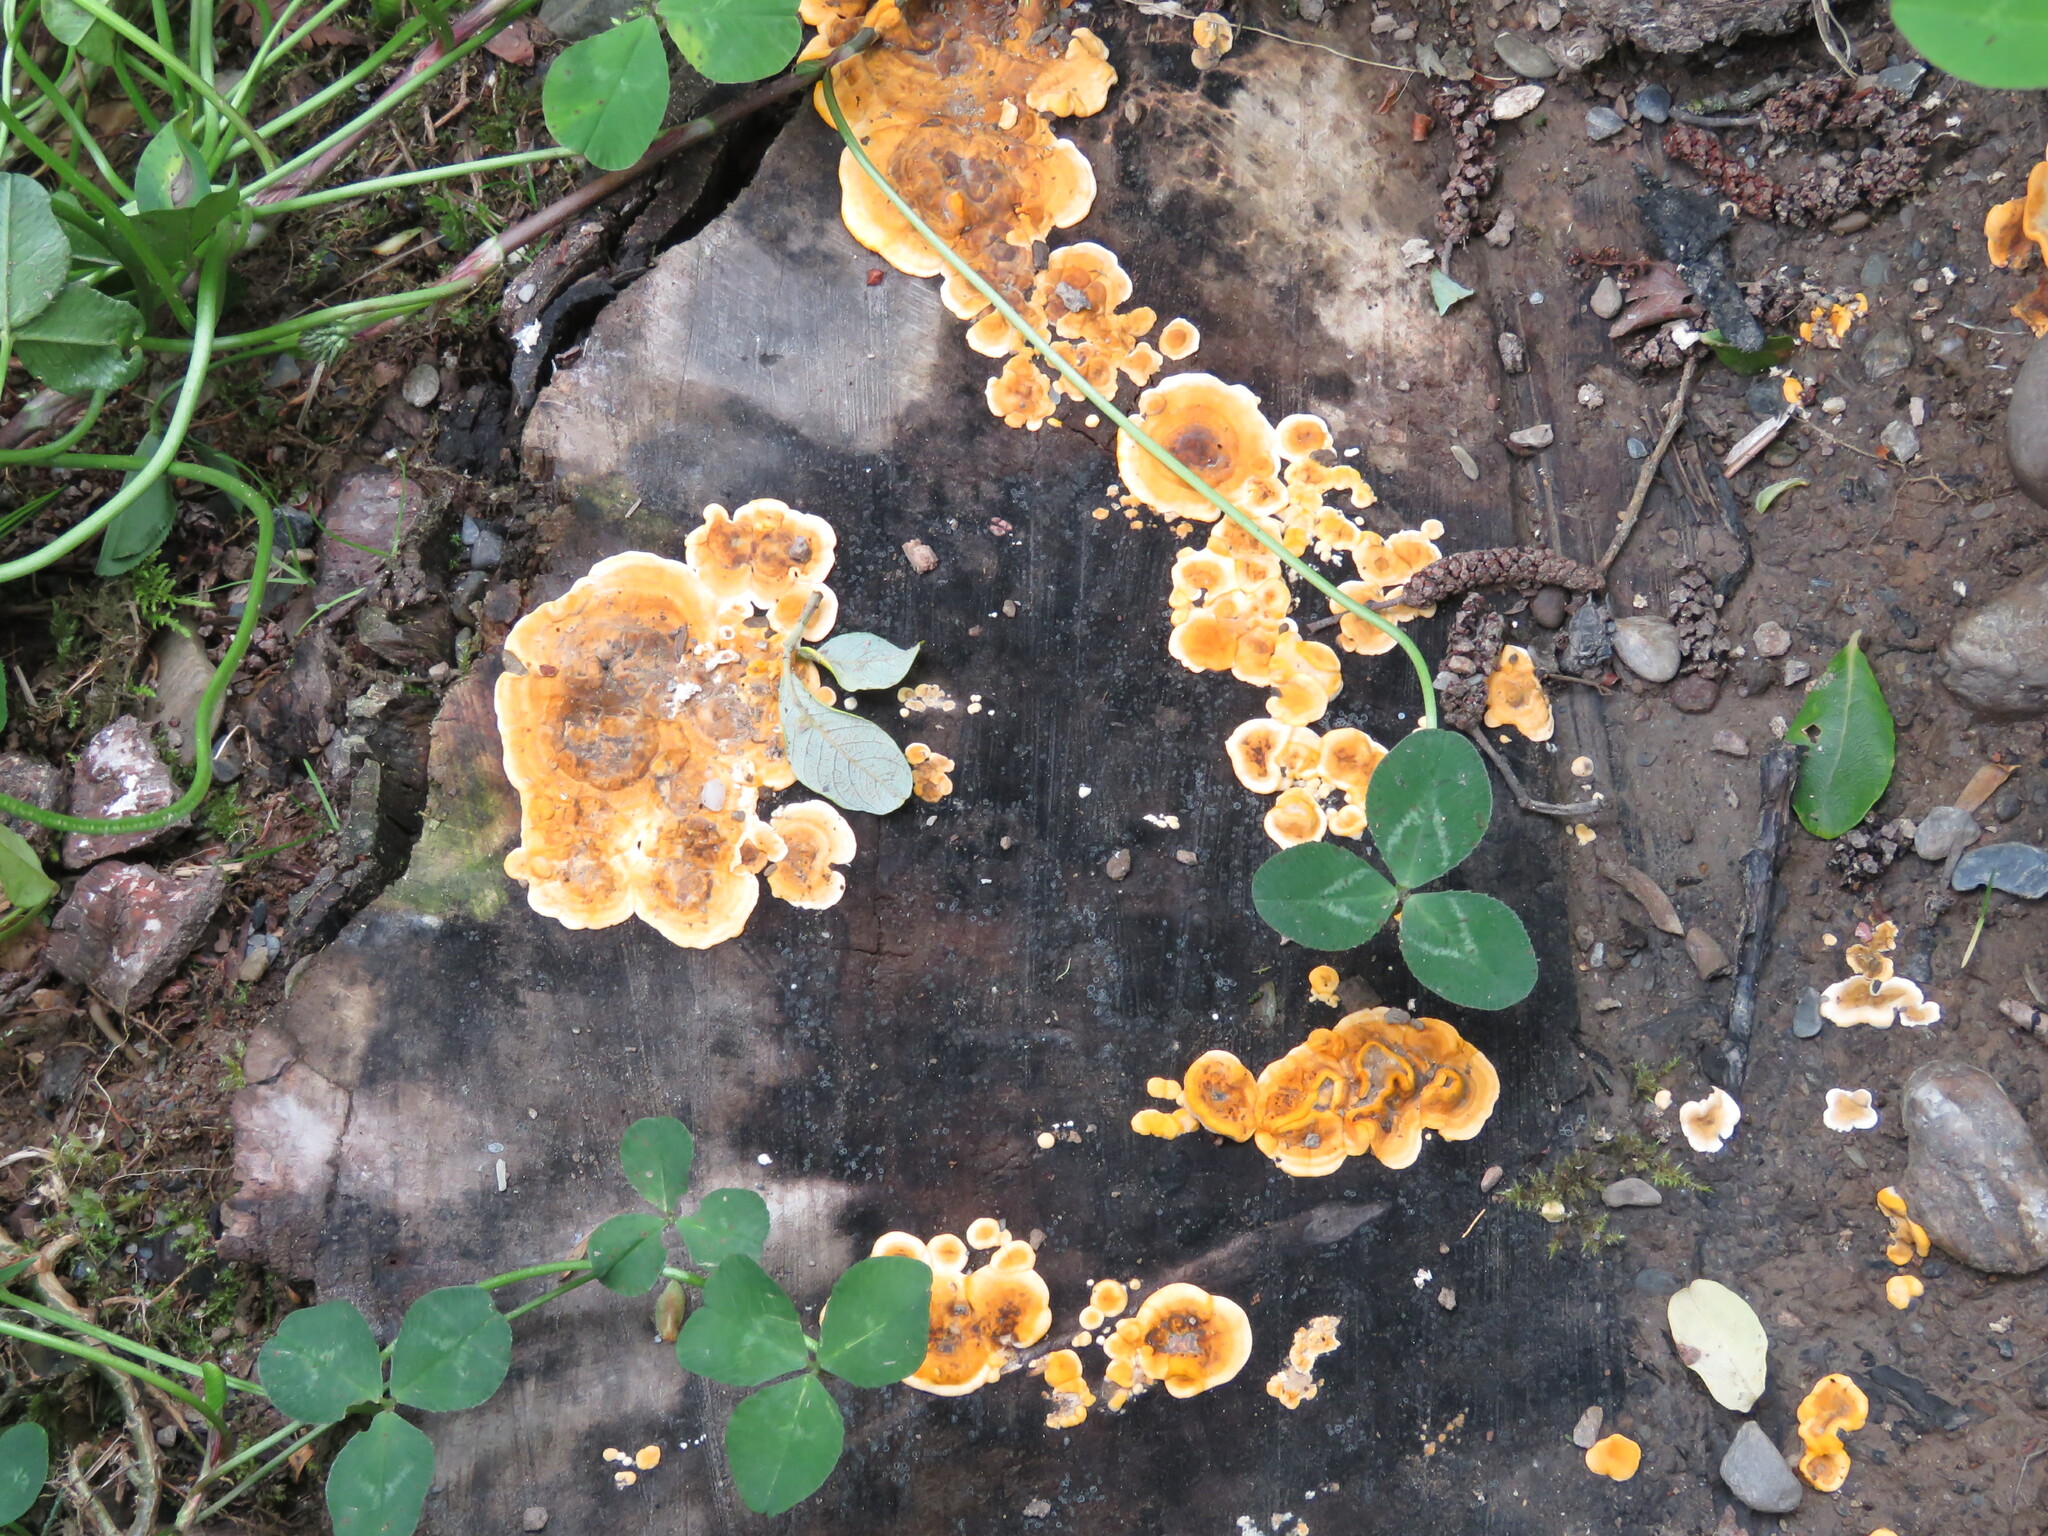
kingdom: Fungi
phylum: Basidiomycota
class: Agaricomycetes
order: Russulales
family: Stereaceae
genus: Stereum
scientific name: Stereum hirsutum
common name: Hairy curtain crust
